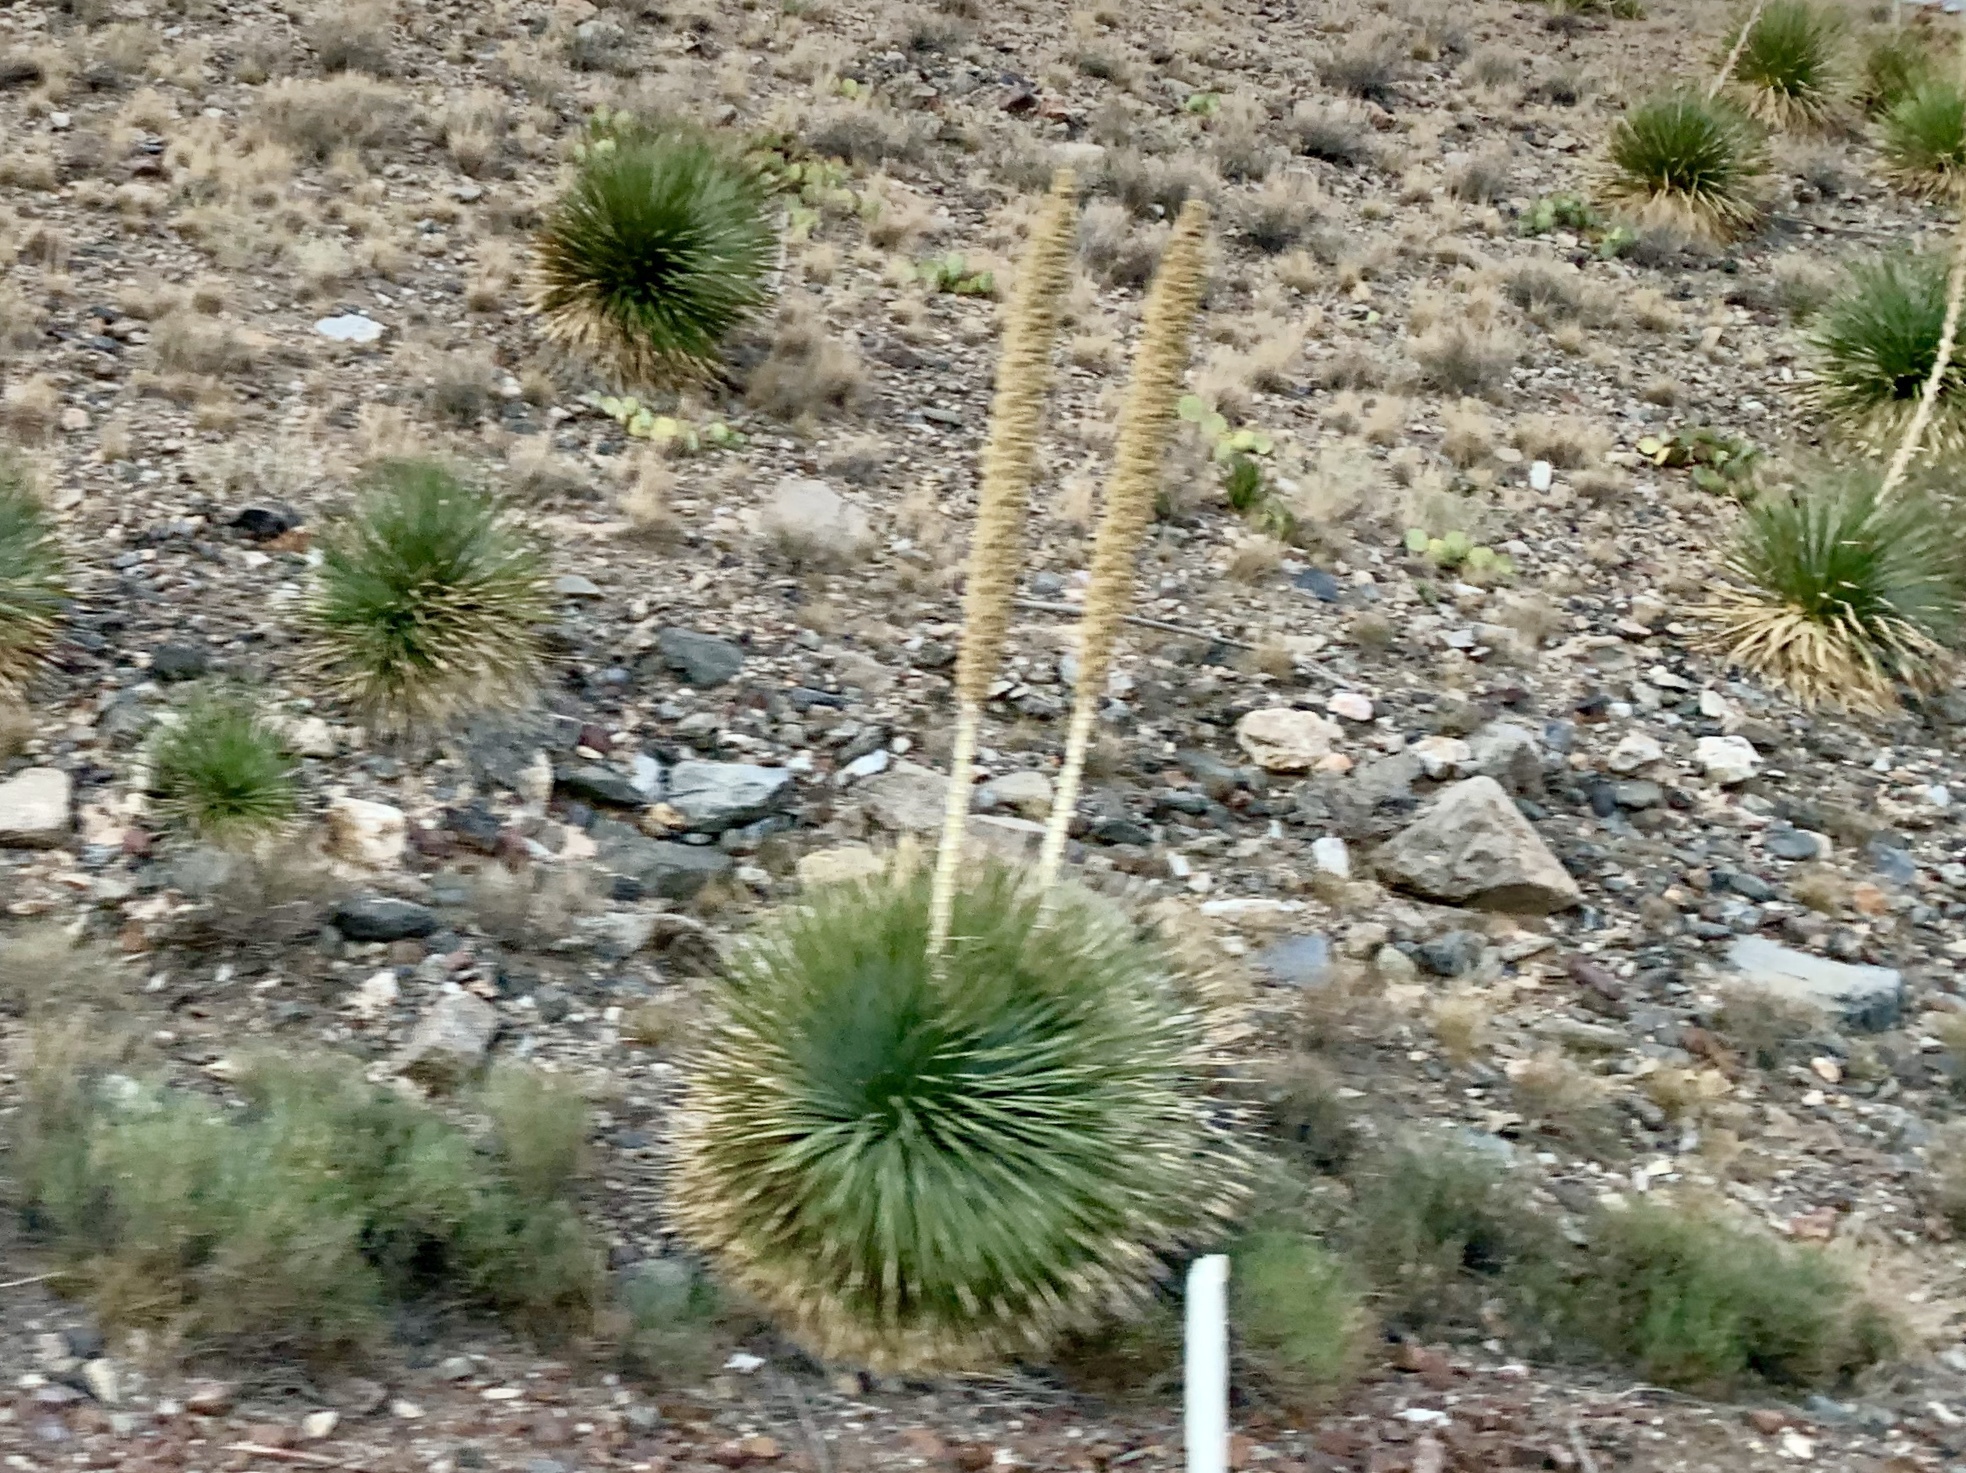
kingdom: Plantae
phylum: Tracheophyta
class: Liliopsida
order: Asparagales
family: Asparagaceae
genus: Dasylirion
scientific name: Dasylirion wheeleri
